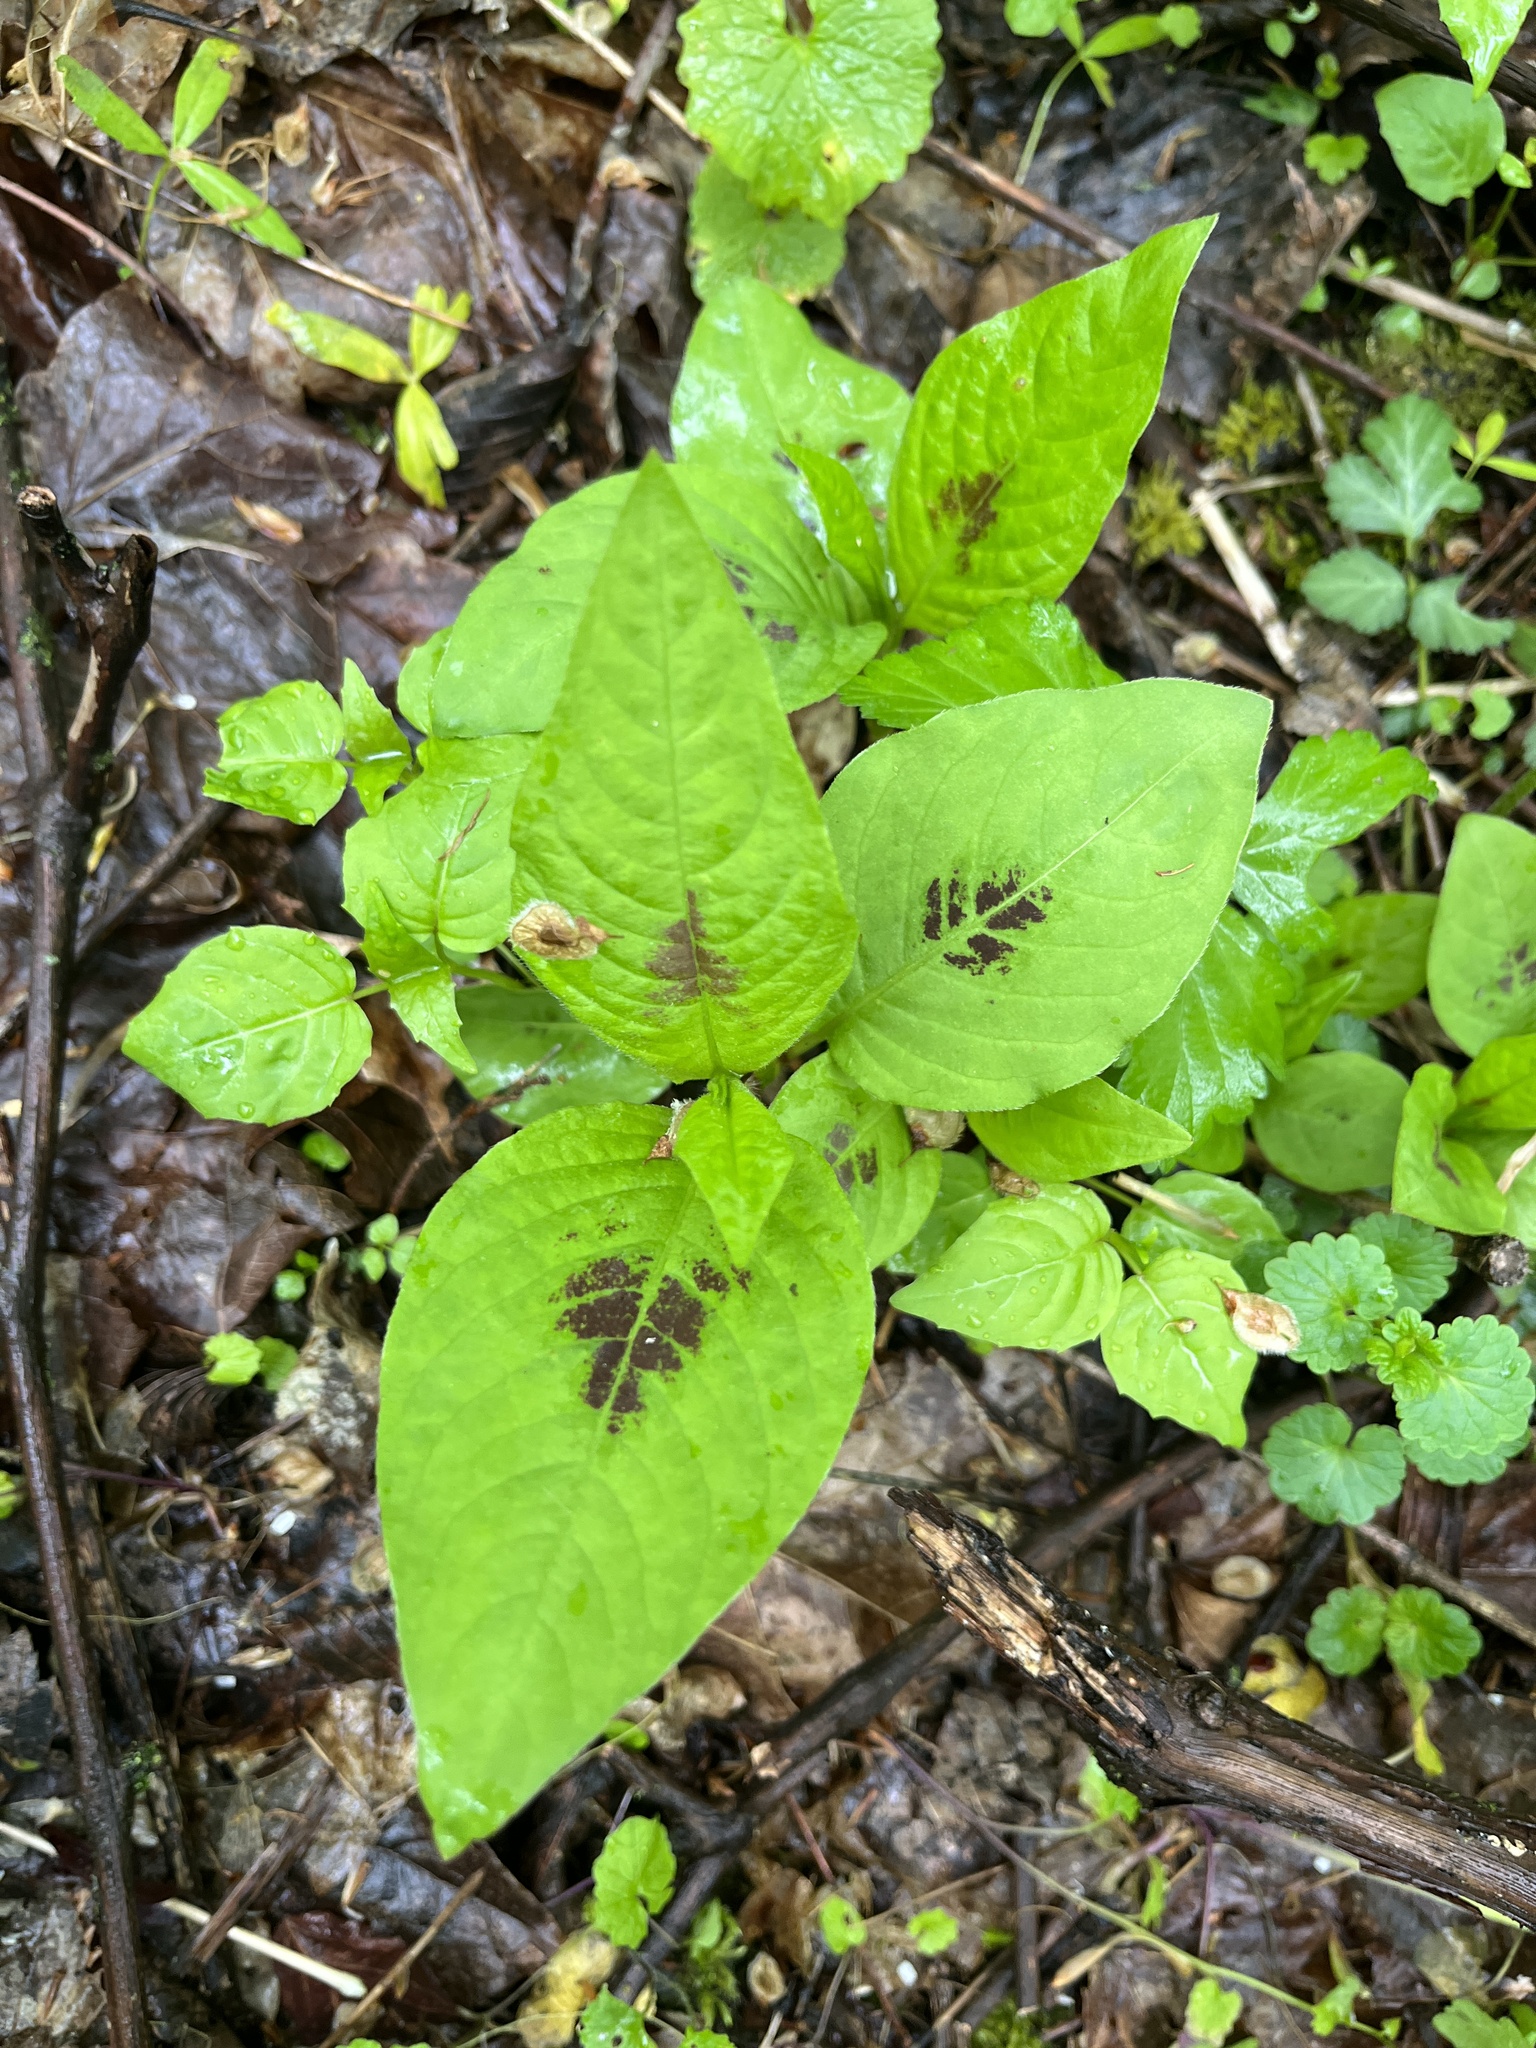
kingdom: Plantae
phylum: Tracheophyta
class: Magnoliopsida
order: Caryophyllales
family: Polygonaceae
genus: Persicaria
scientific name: Persicaria virginiana
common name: Jumpseed
